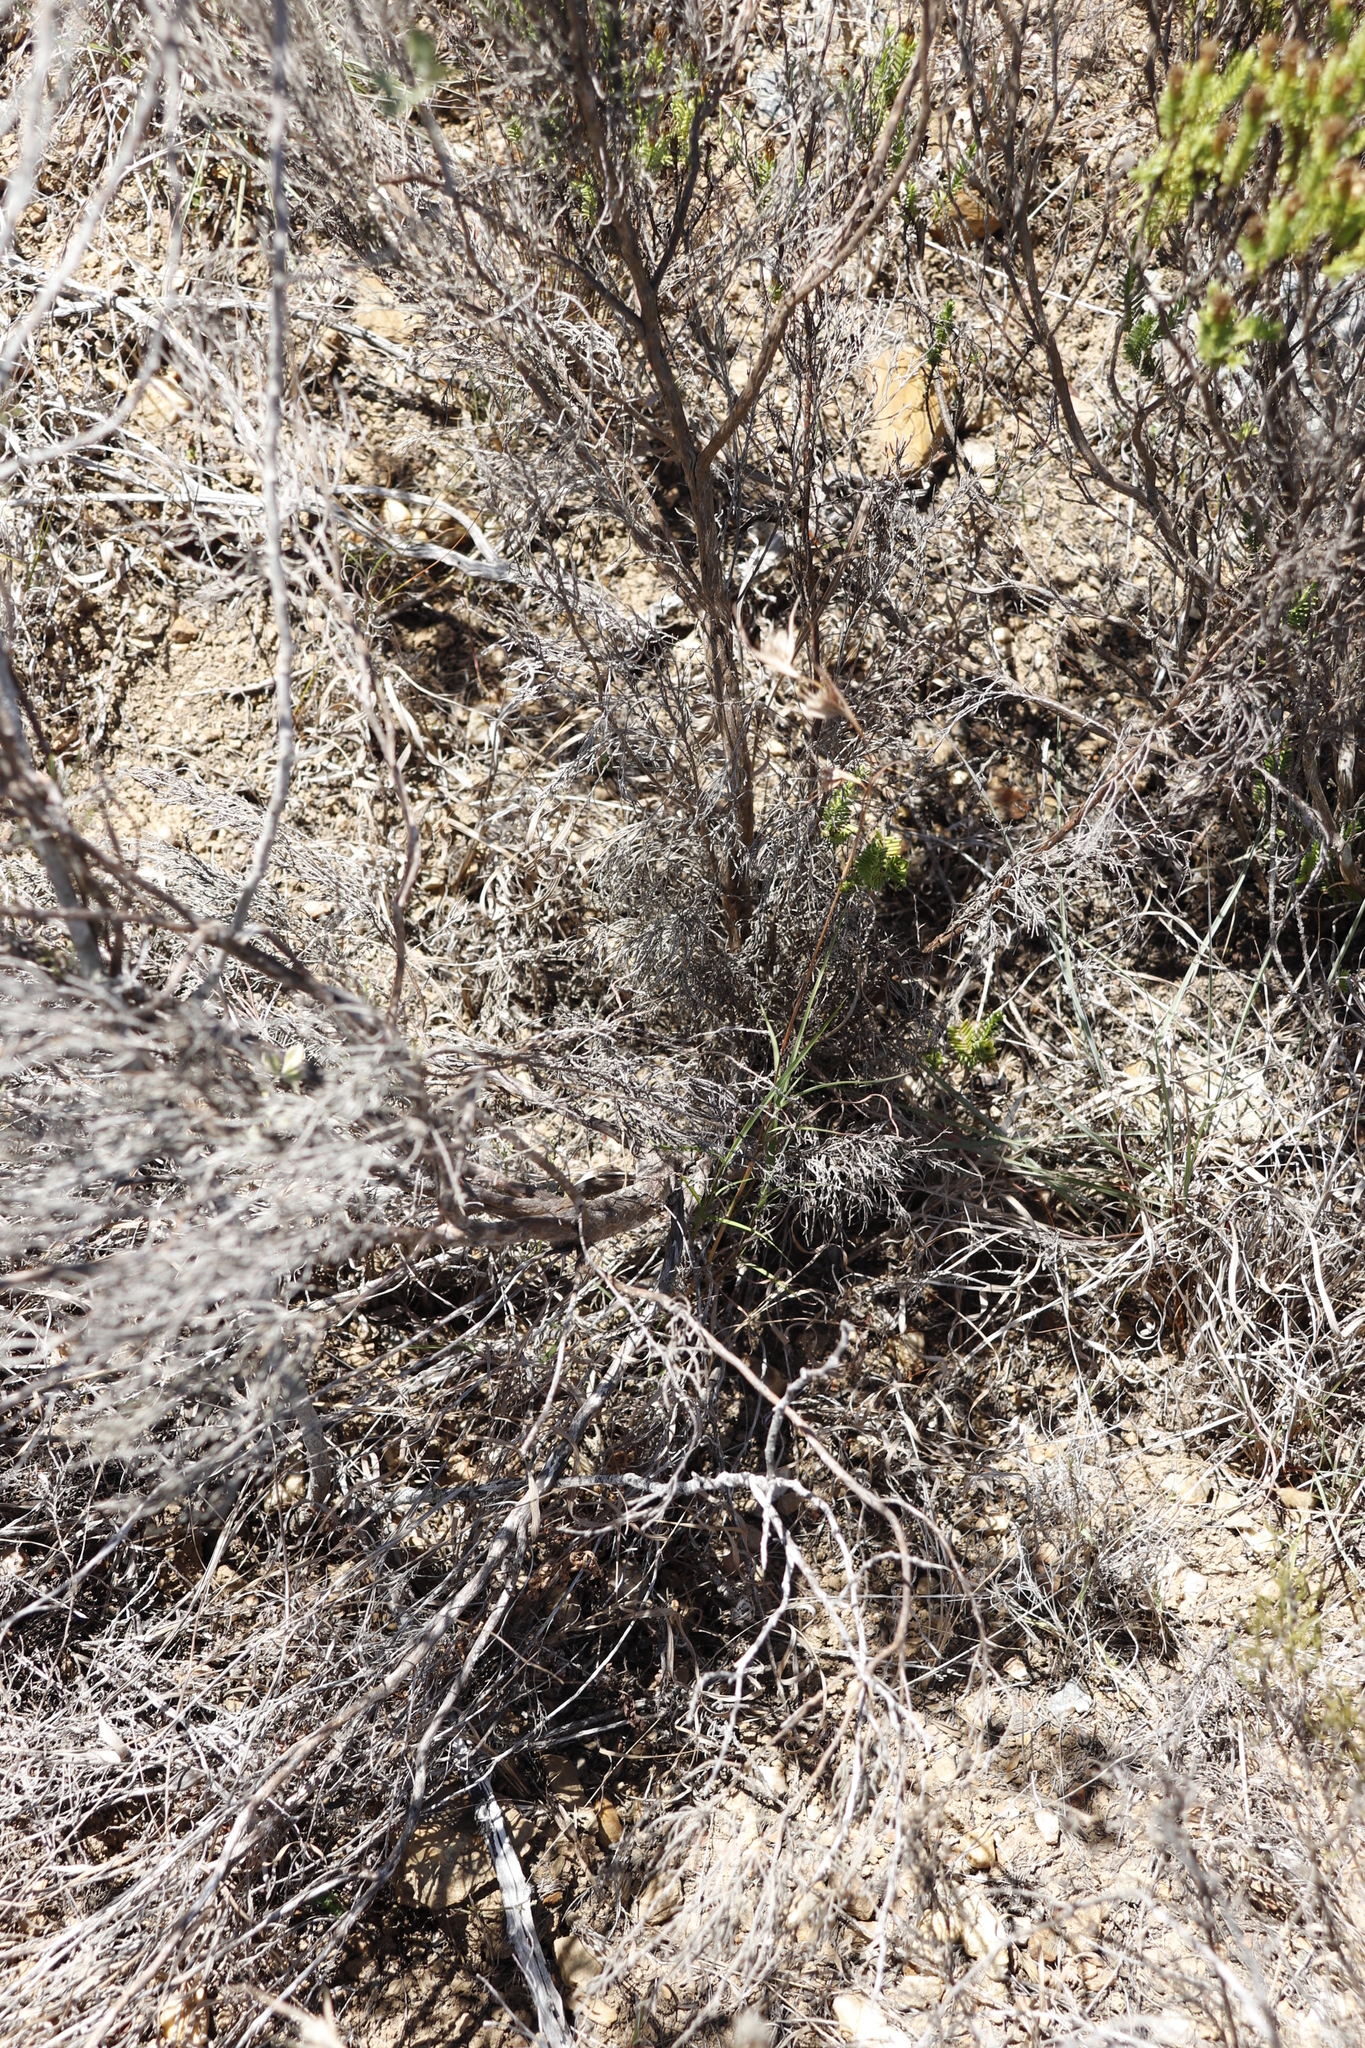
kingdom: Plantae
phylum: Tracheophyta
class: Liliopsida
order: Poales
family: Poaceae
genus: Themeda
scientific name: Themeda triandra
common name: Kangaroo grass
